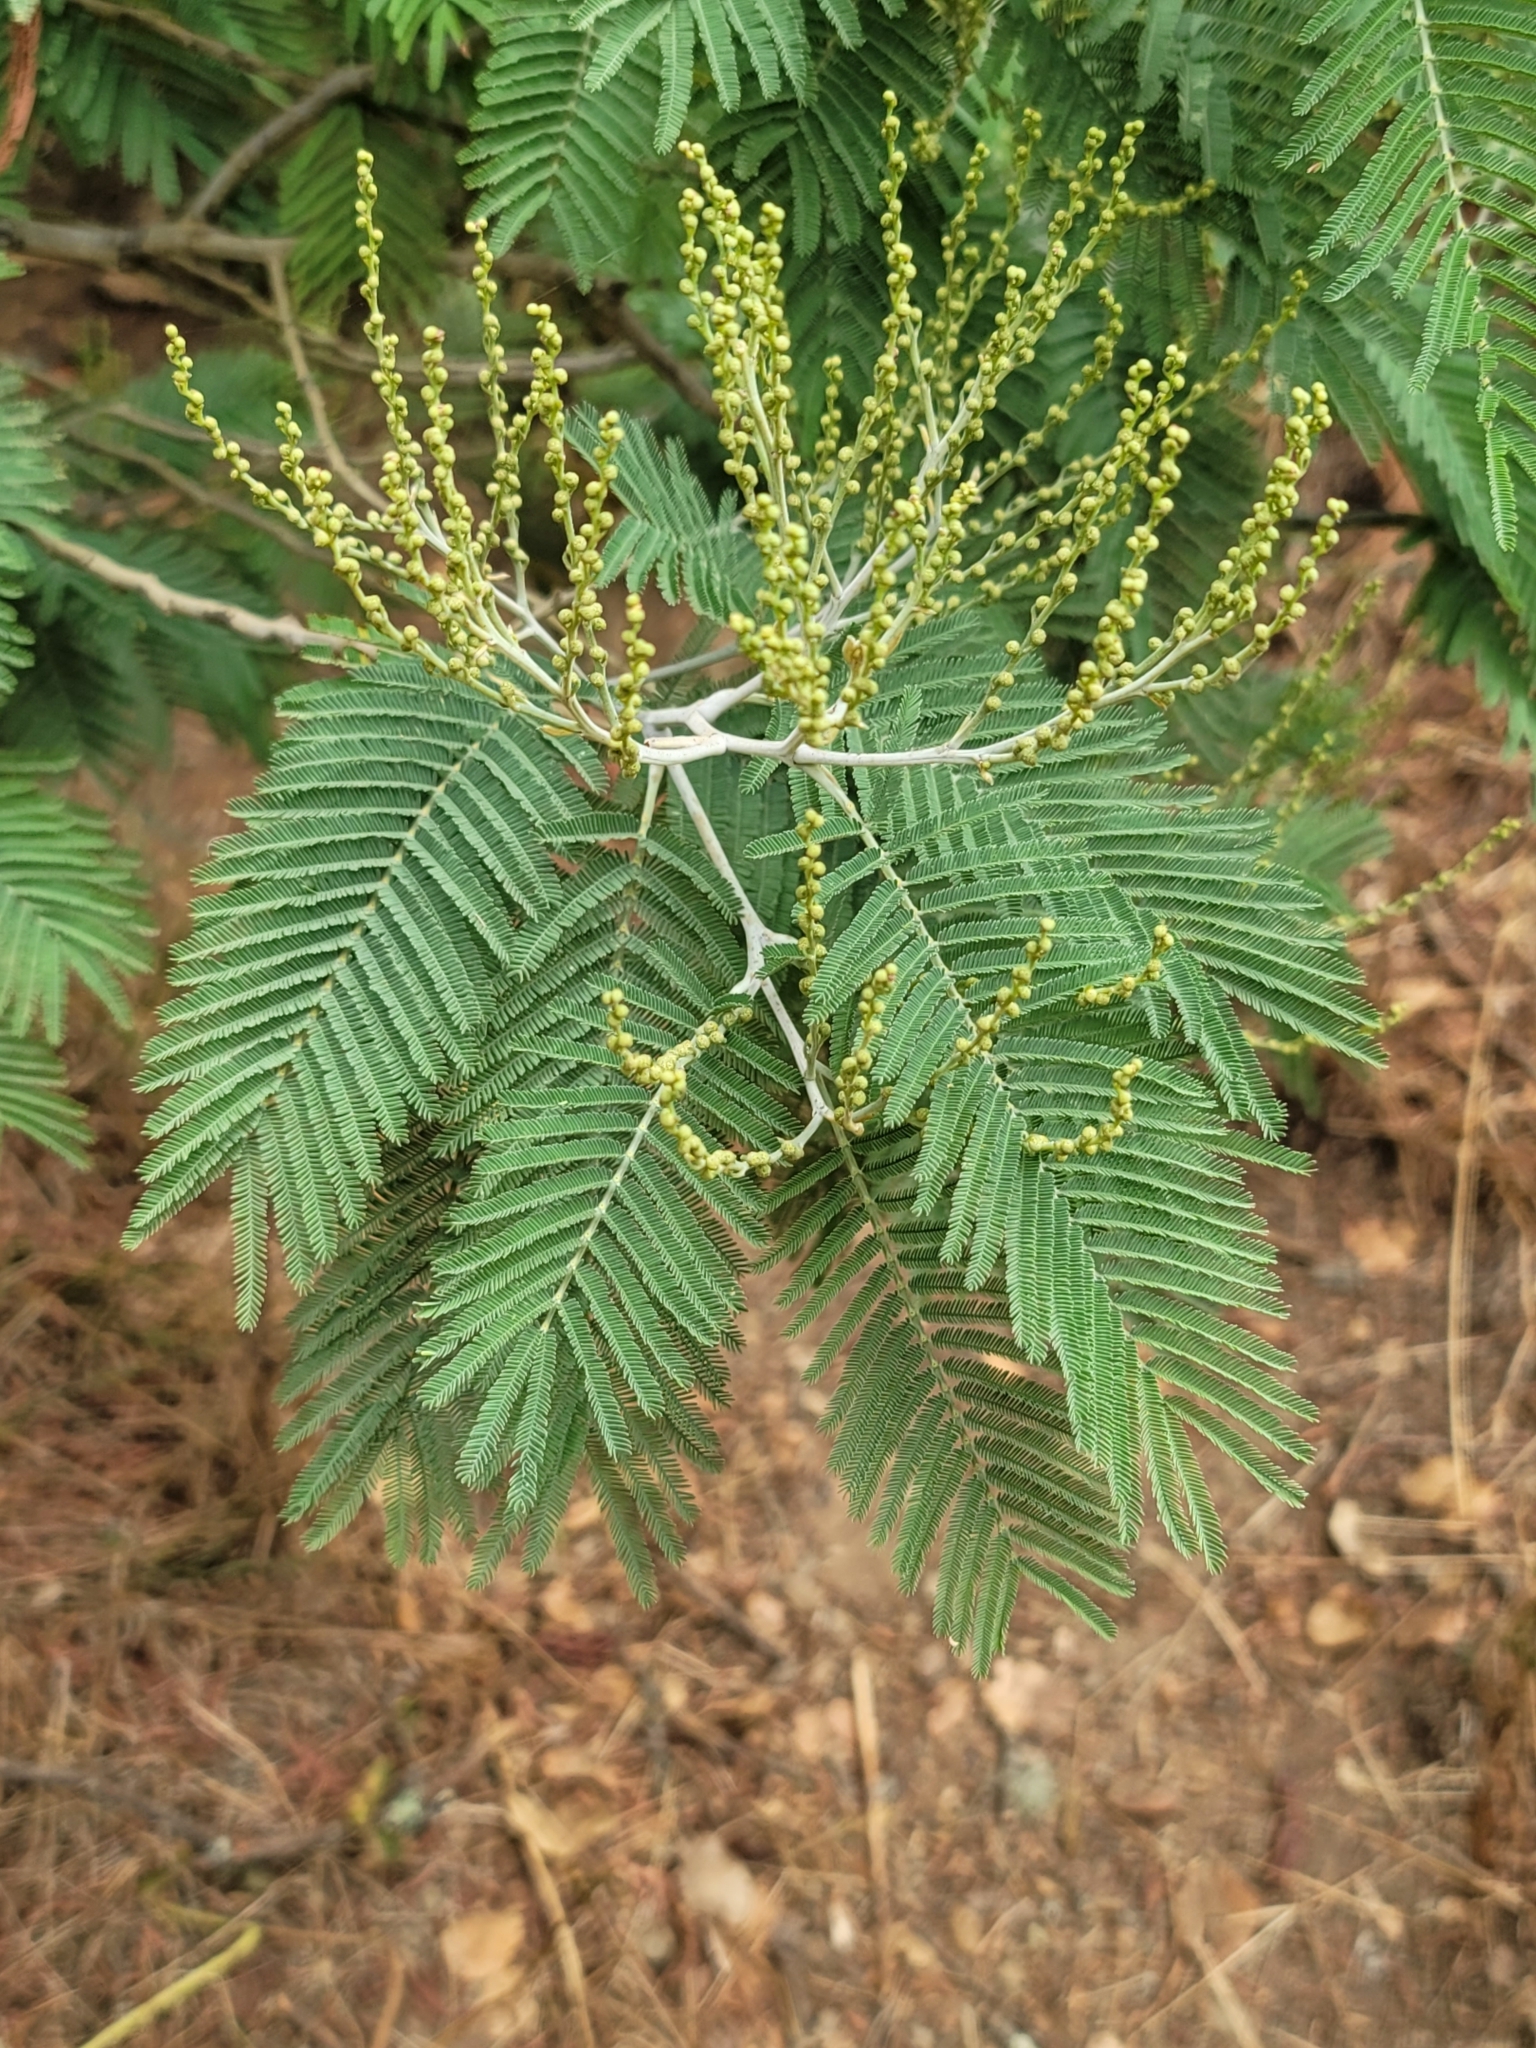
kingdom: Plantae
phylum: Tracheophyta
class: Magnoliopsida
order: Fabales
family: Fabaceae
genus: Acacia
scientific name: Acacia dealbata
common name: Silver wattle
